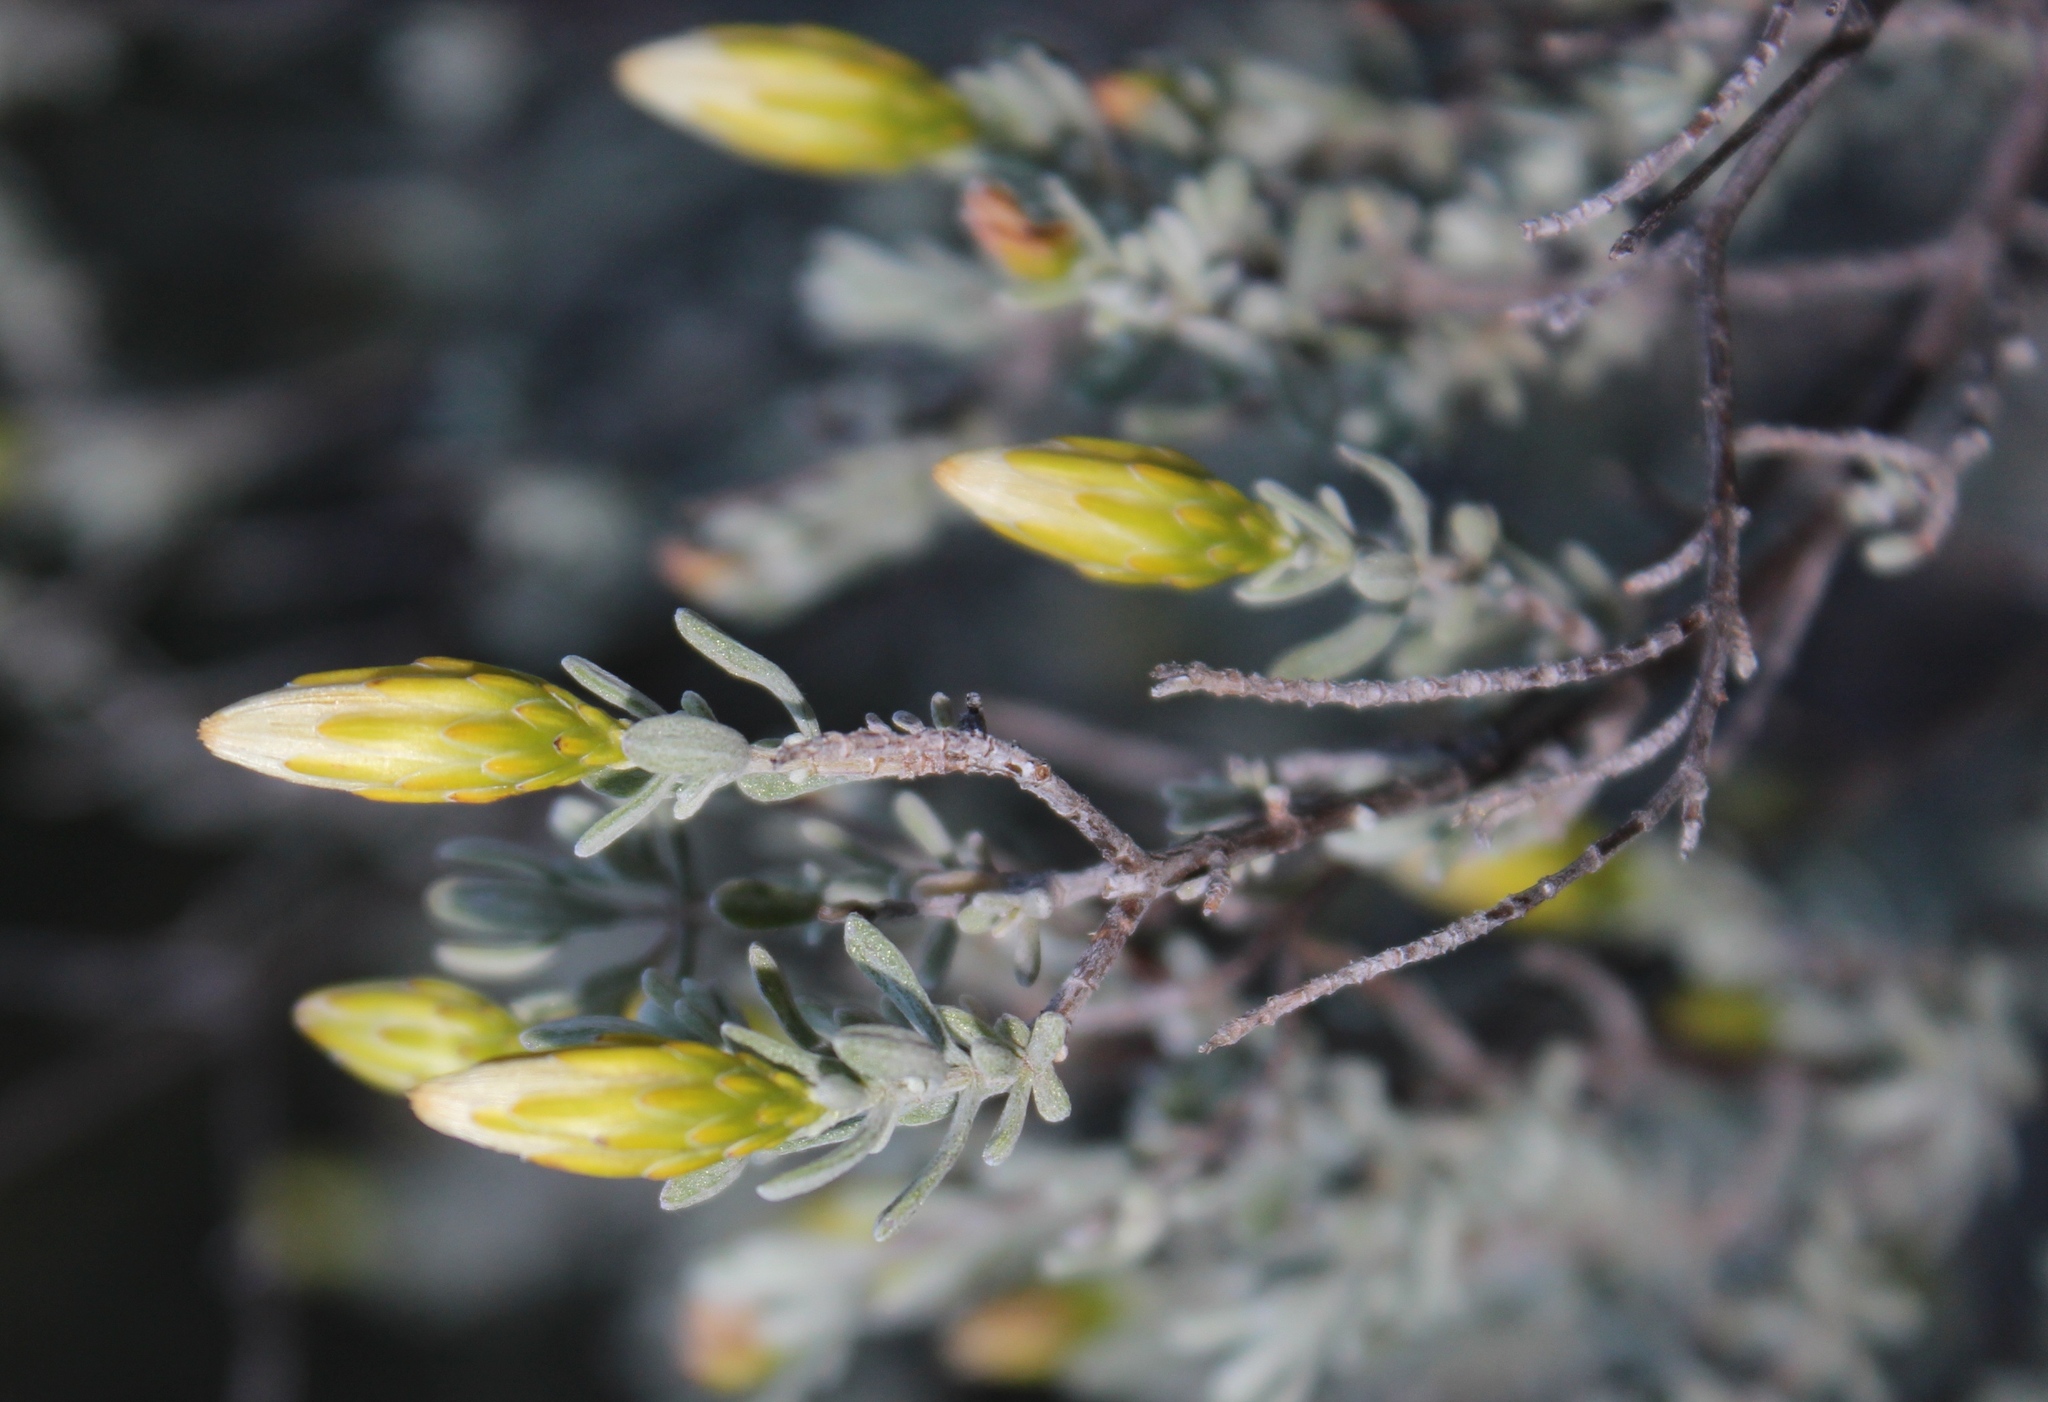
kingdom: Plantae
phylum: Tracheophyta
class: Magnoliopsida
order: Asterales
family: Asteraceae
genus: Pteronia
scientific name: Pteronia incana
